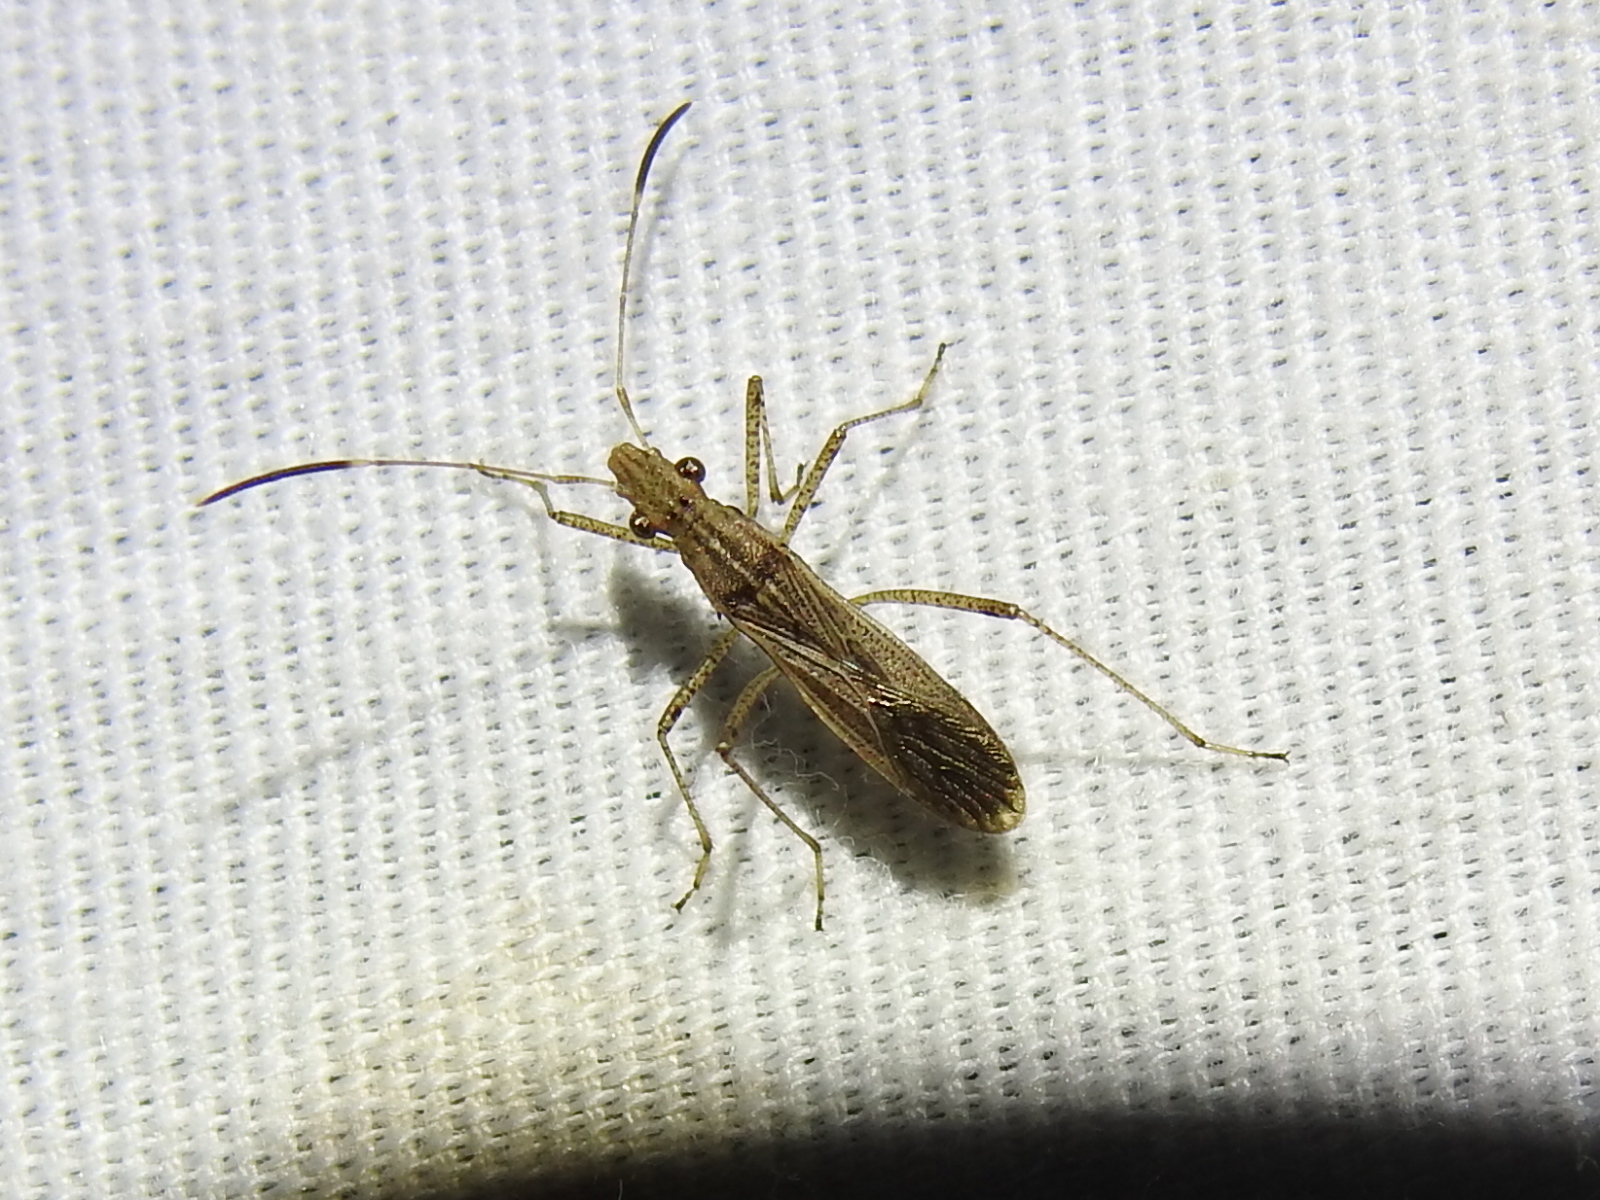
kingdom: Animalia
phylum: Arthropoda
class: Insecta
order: Hemiptera
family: Alydidae
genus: Esperanza
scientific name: Esperanza texana
